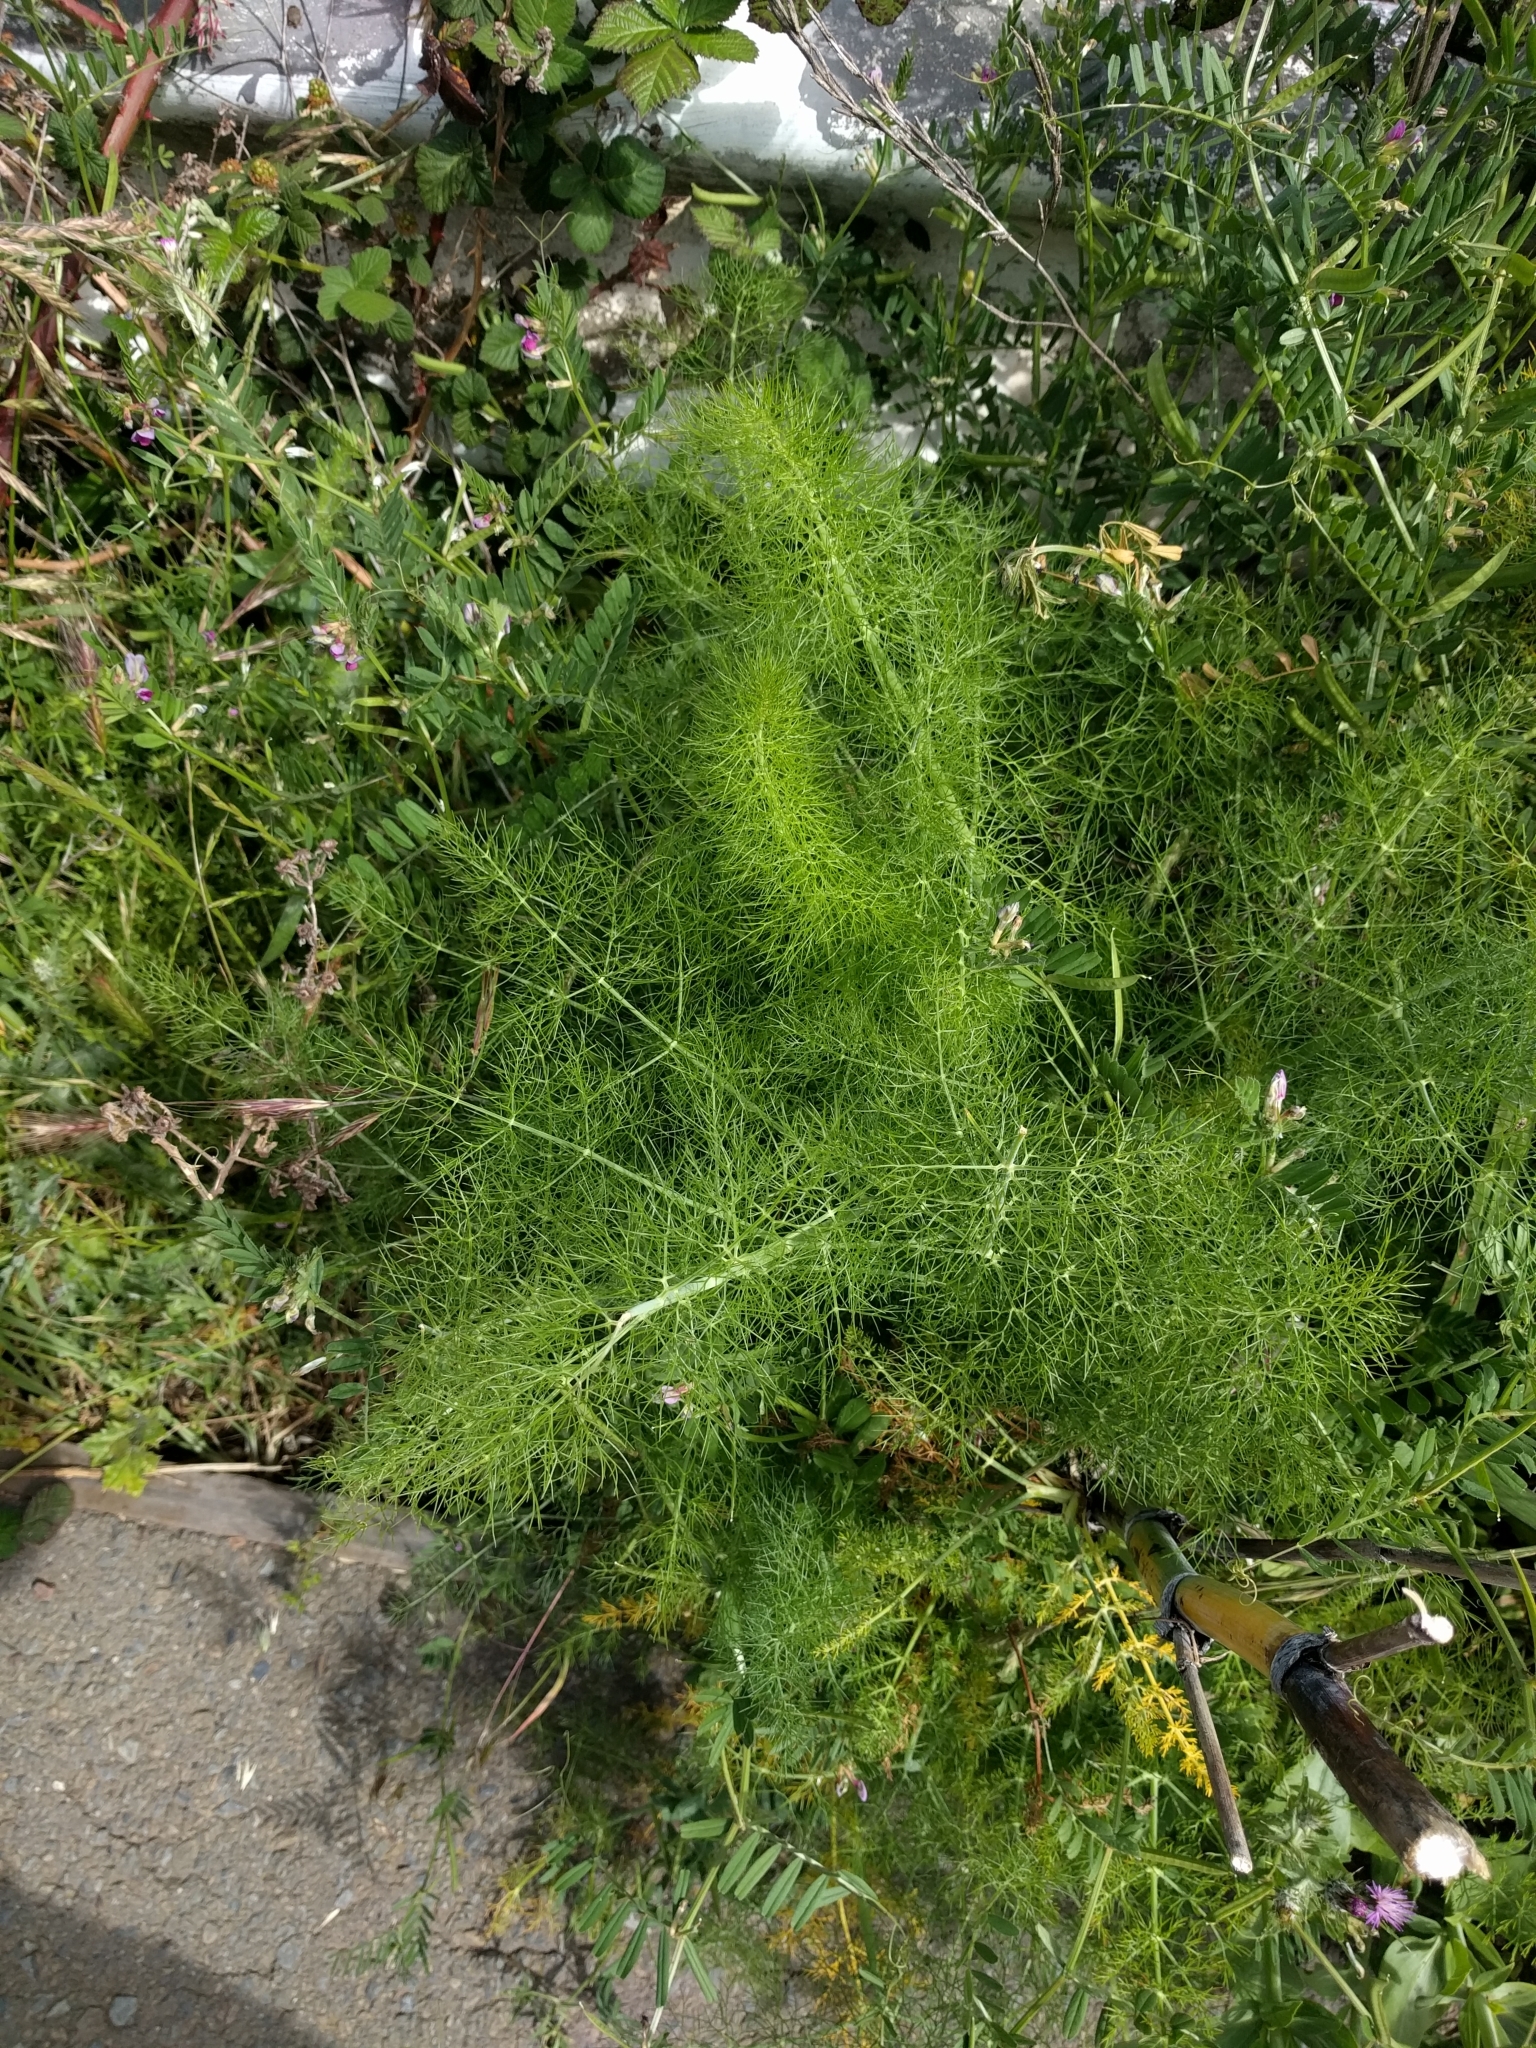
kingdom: Plantae
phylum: Tracheophyta
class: Magnoliopsida
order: Apiales
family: Apiaceae
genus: Foeniculum
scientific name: Foeniculum vulgare
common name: Fennel
